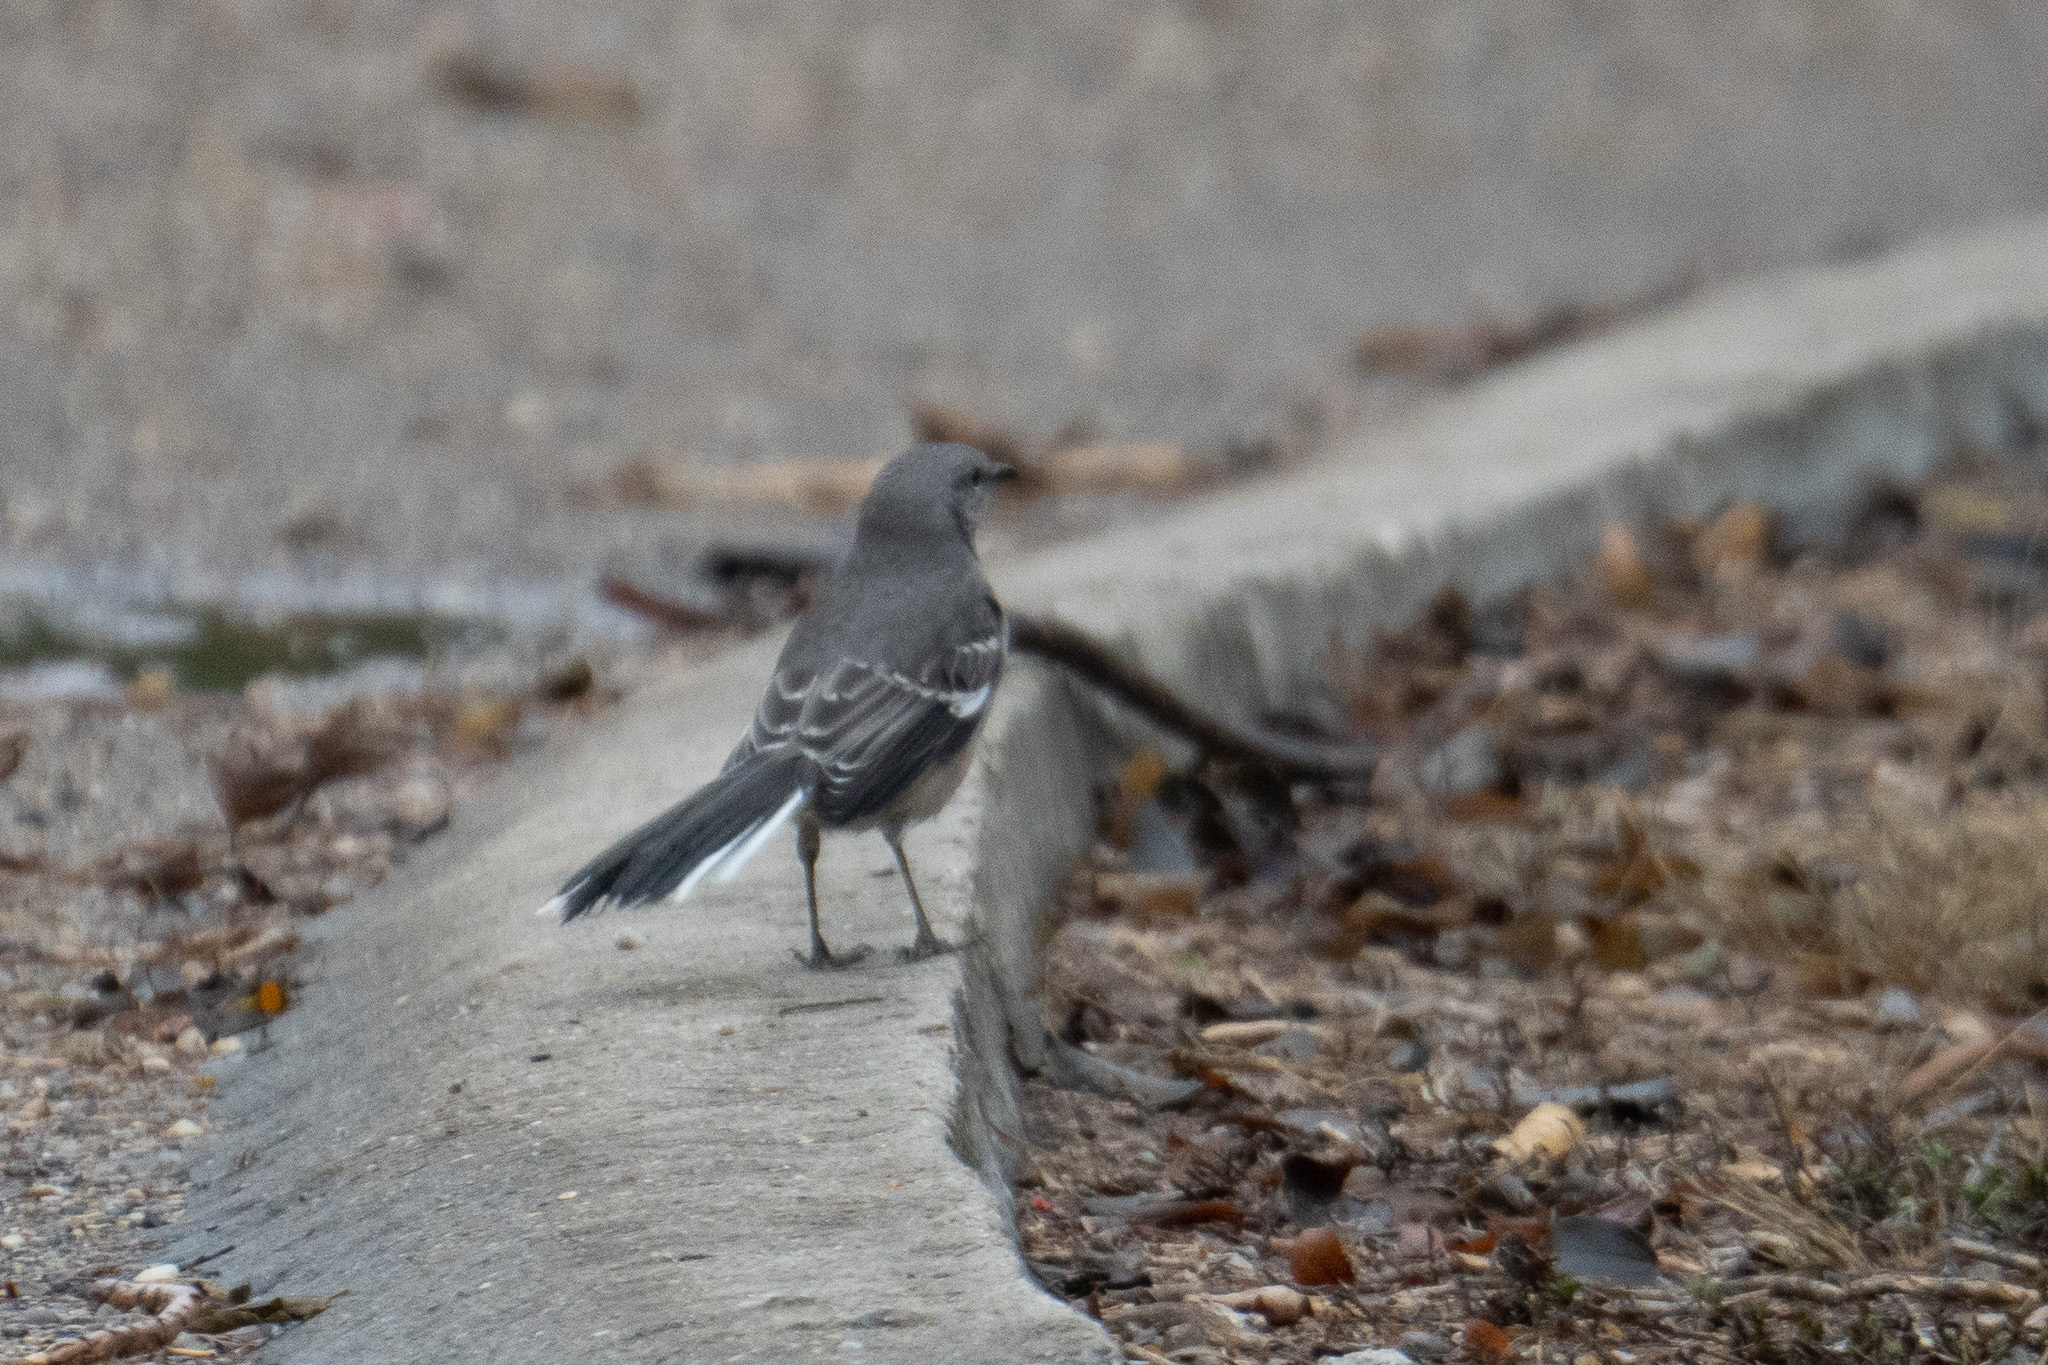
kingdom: Animalia
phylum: Chordata
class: Aves
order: Passeriformes
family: Mimidae
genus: Mimus
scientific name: Mimus polyglottos
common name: Northern mockingbird
